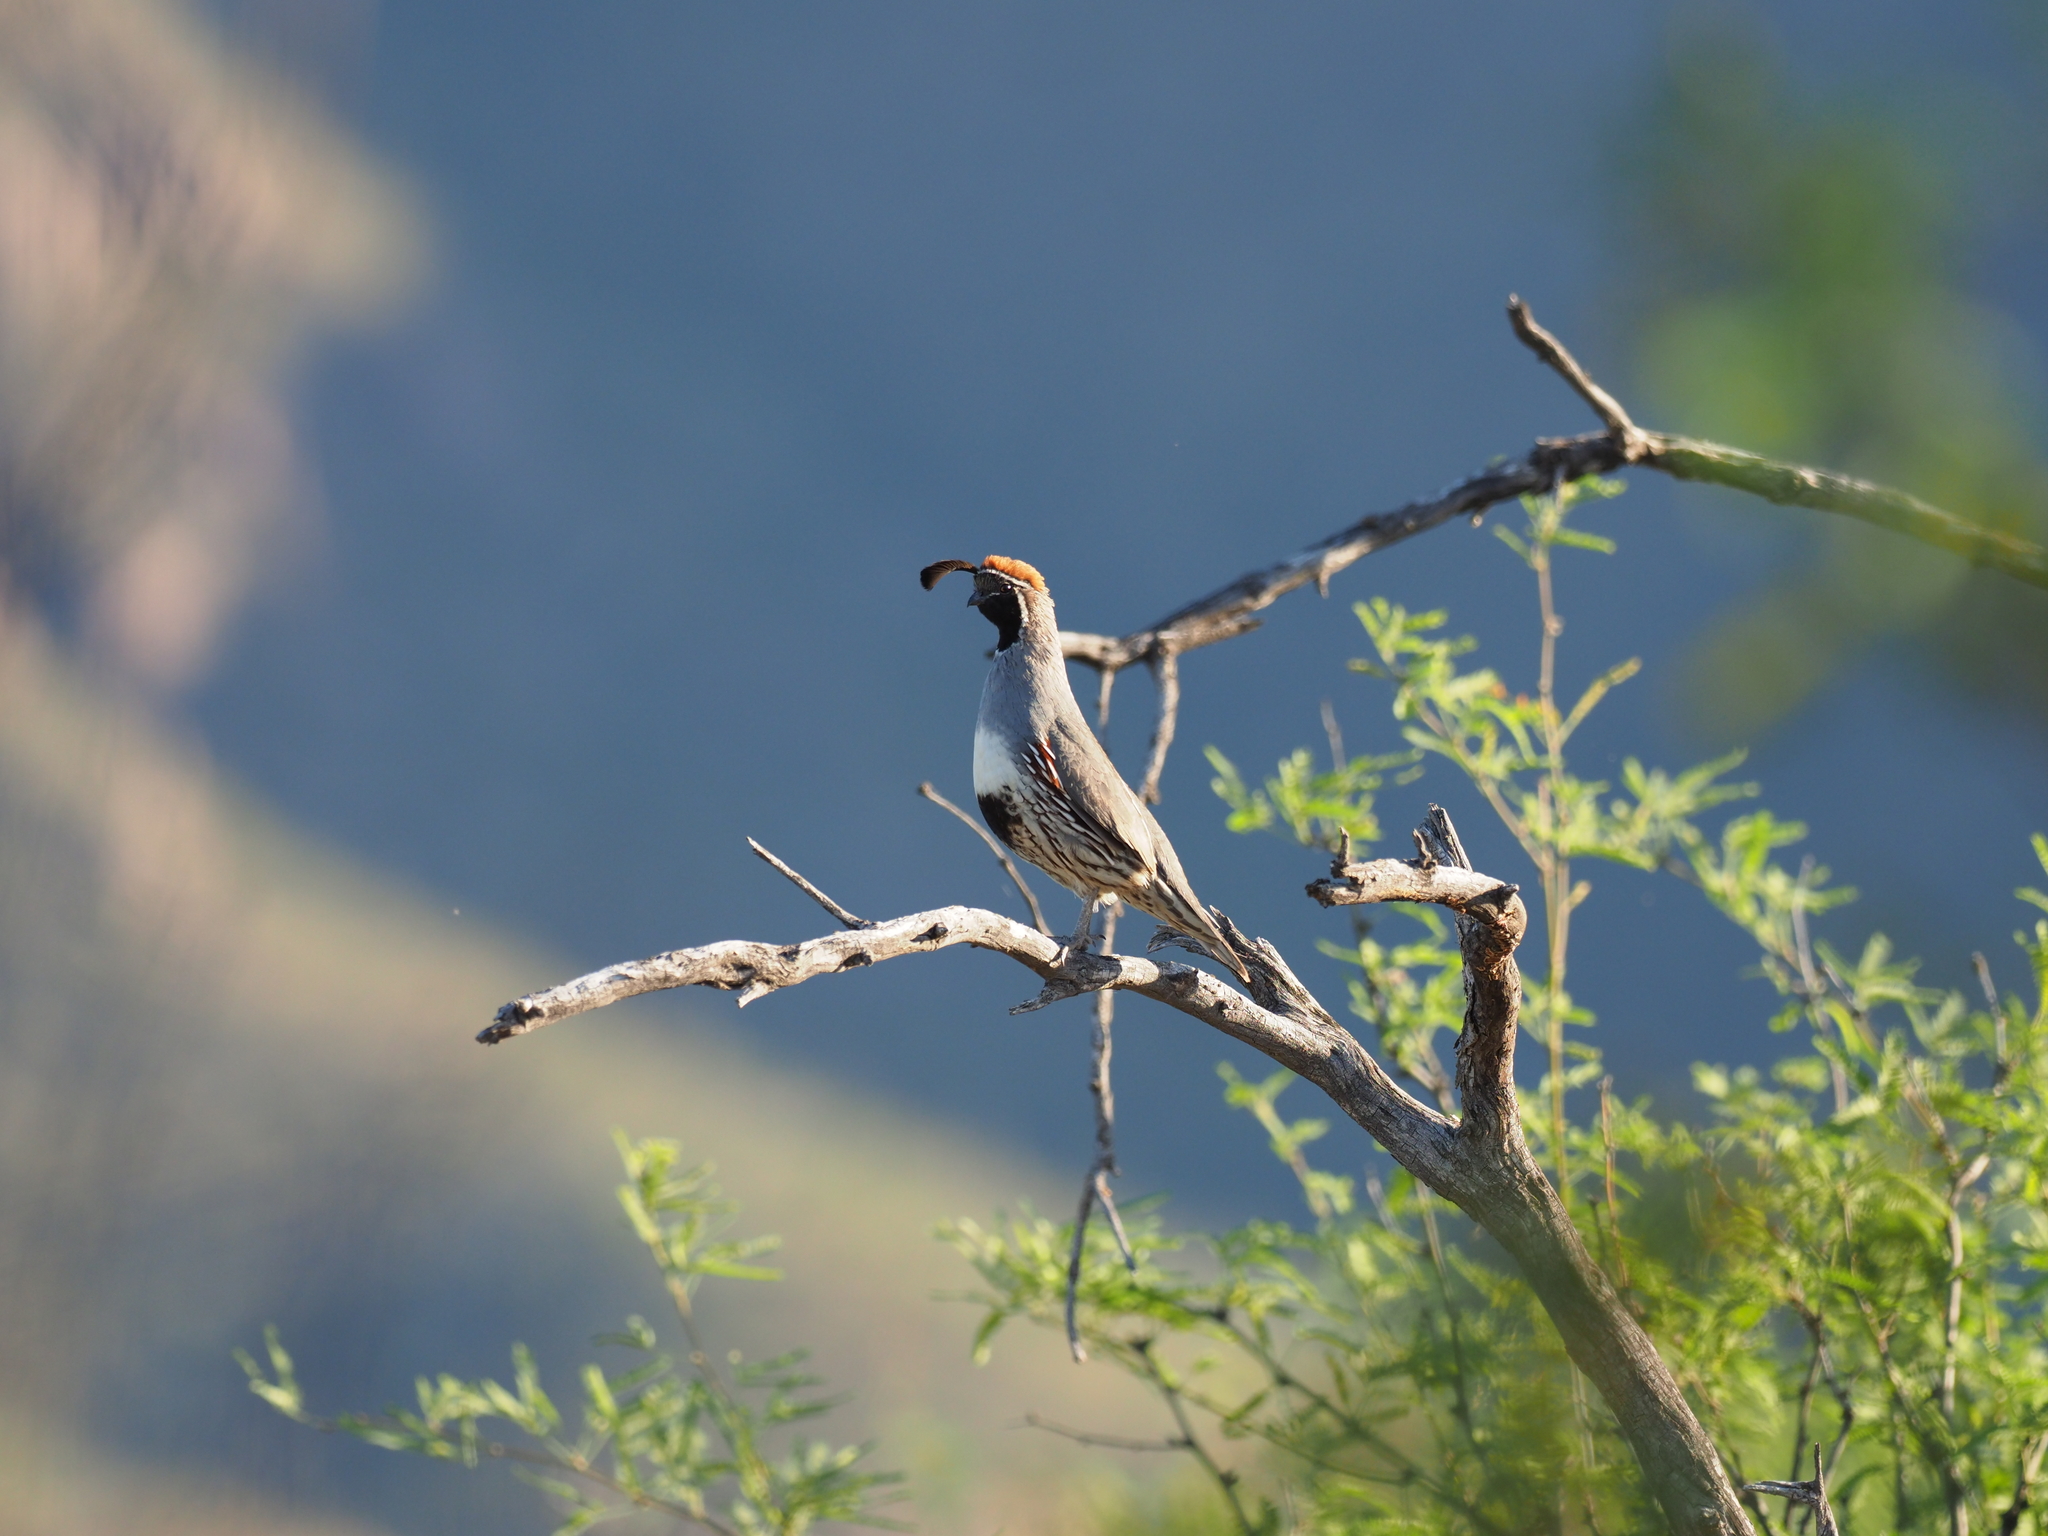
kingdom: Animalia
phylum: Chordata
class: Aves
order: Galliformes
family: Odontophoridae
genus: Callipepla
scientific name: Callipepla gambelii
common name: Gambel's quail
